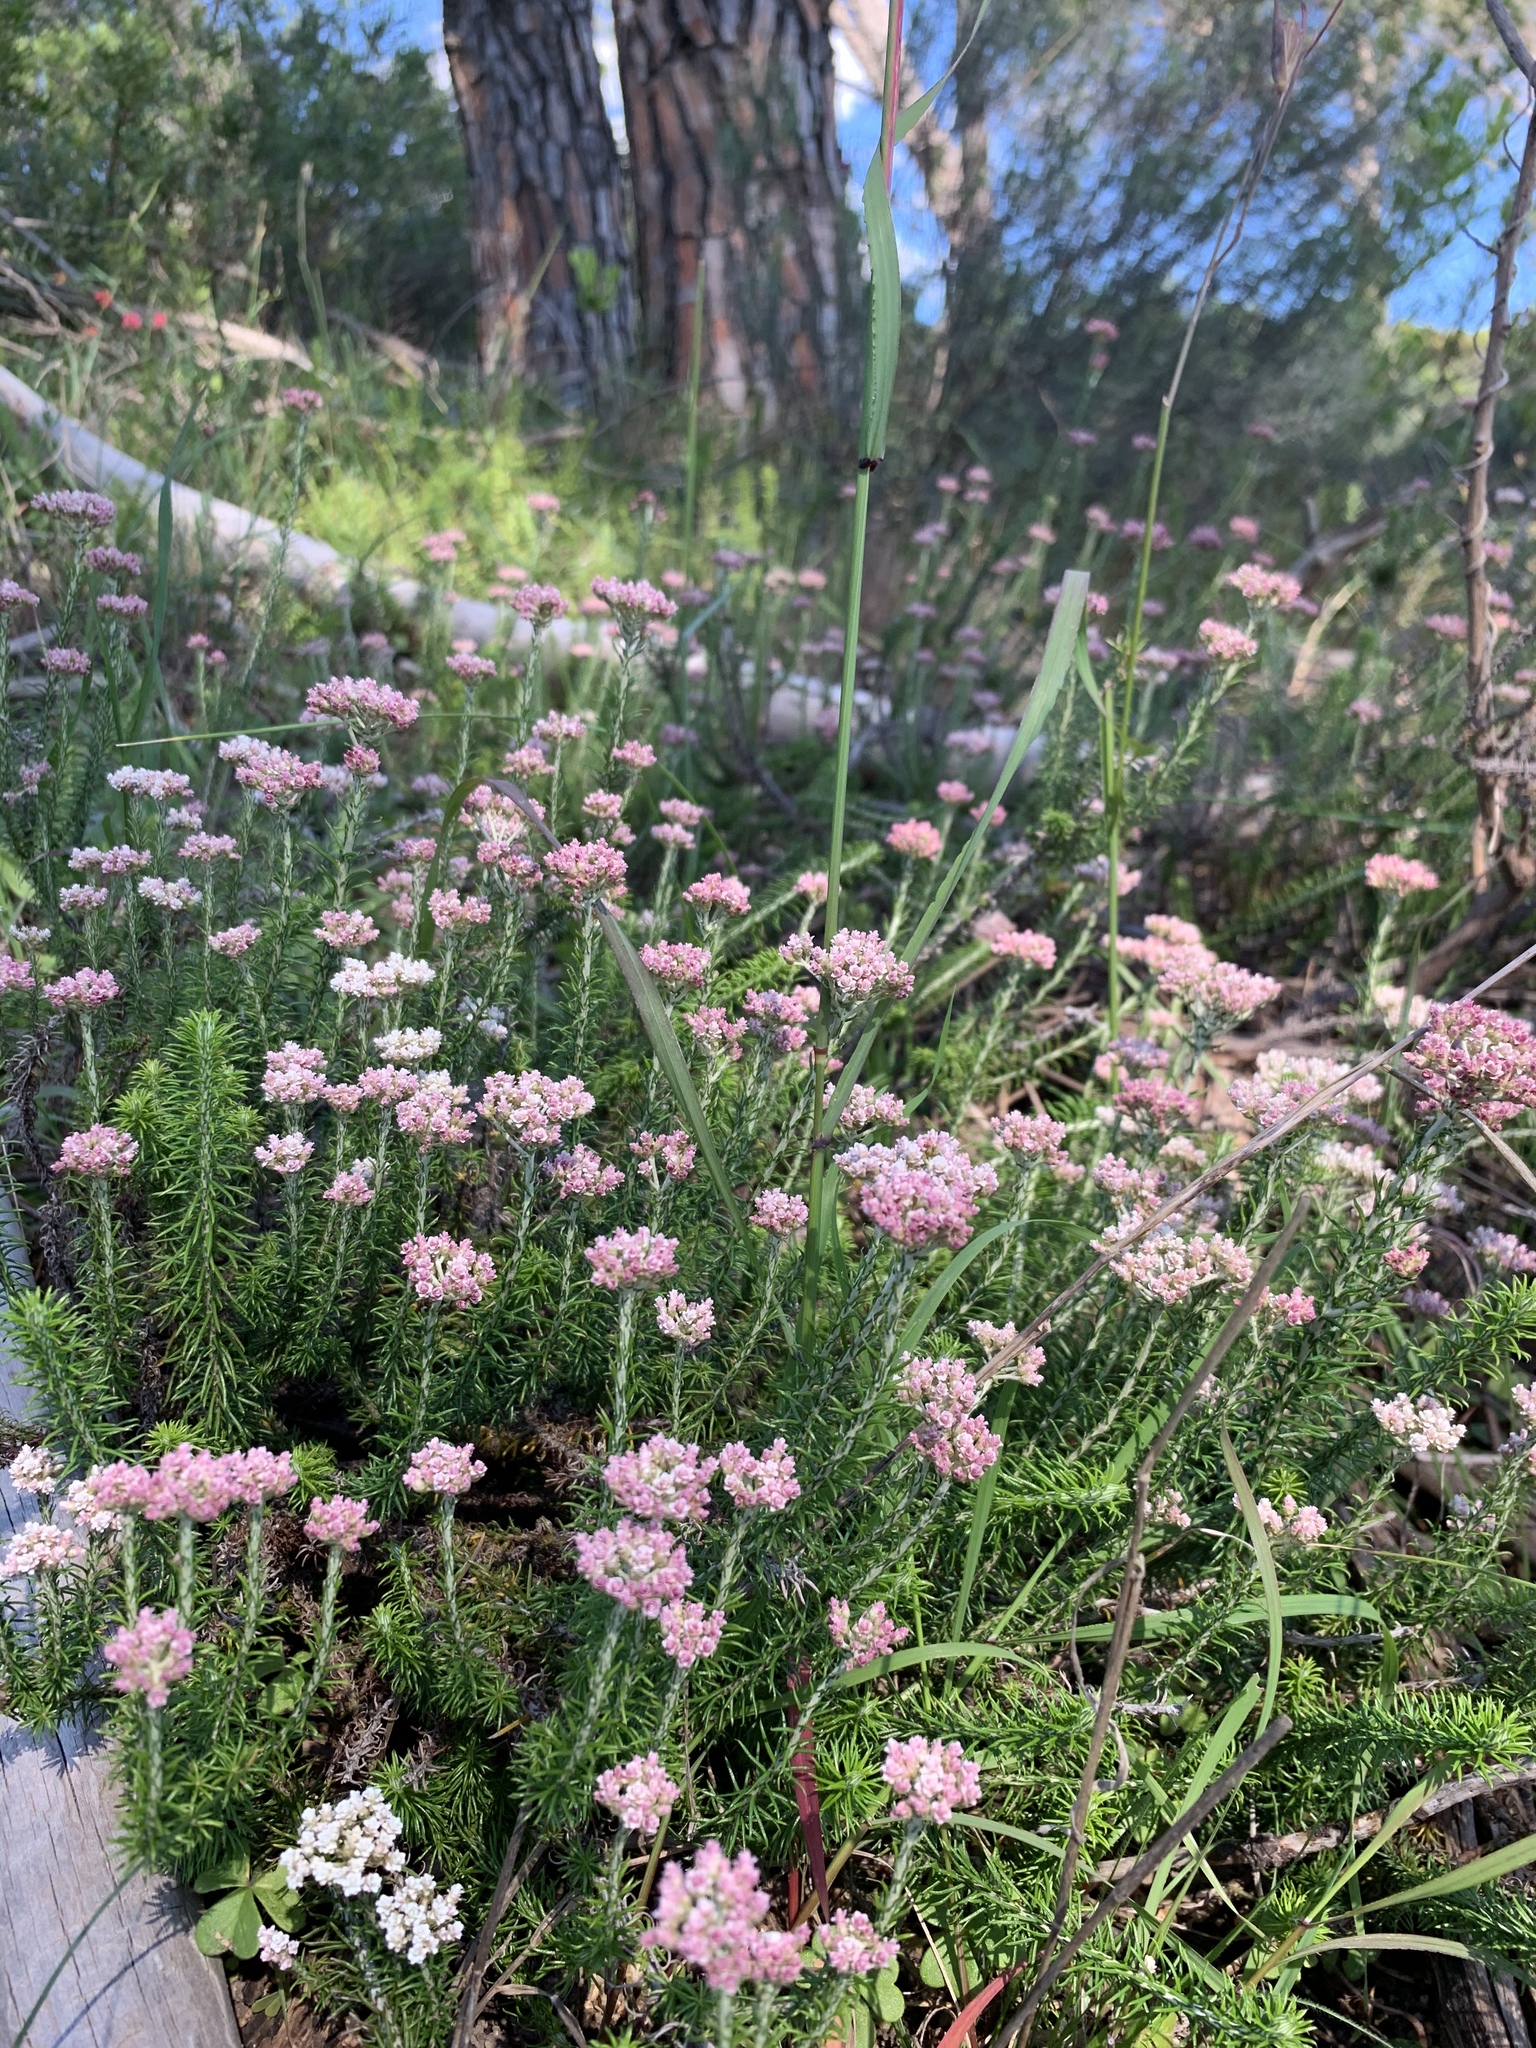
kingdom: Plantae
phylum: Tracheophyta
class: Magnoliopsida
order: Asterales
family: Asteraceae
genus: Helichrysum
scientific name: Helichrysum teretifolium
